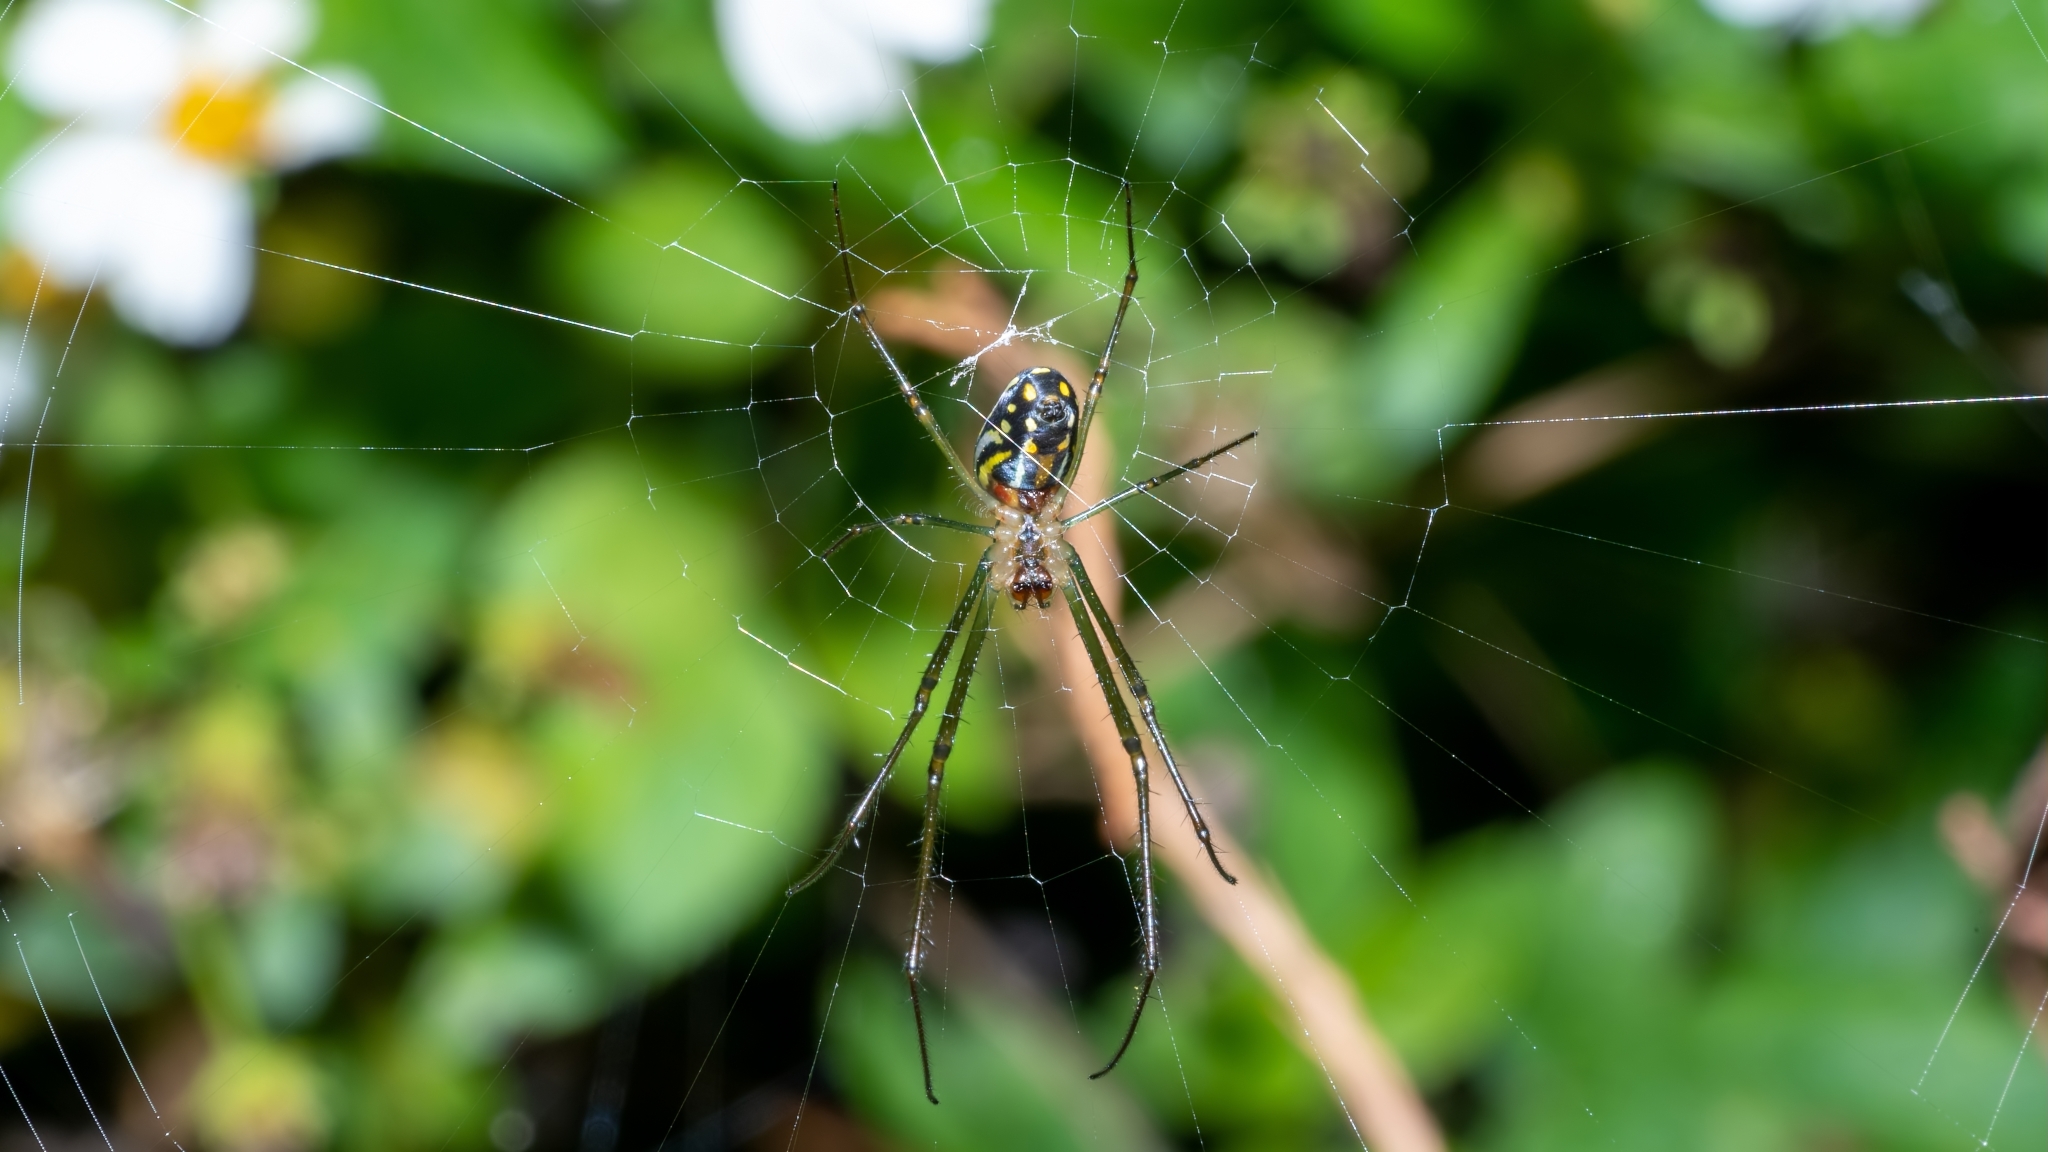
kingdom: Animalia
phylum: Arthropoda
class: Arachnida
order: Araneae
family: Tetragnathidae
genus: Leucauge
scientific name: Leucauge argyra
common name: Longjawed orb weavers
